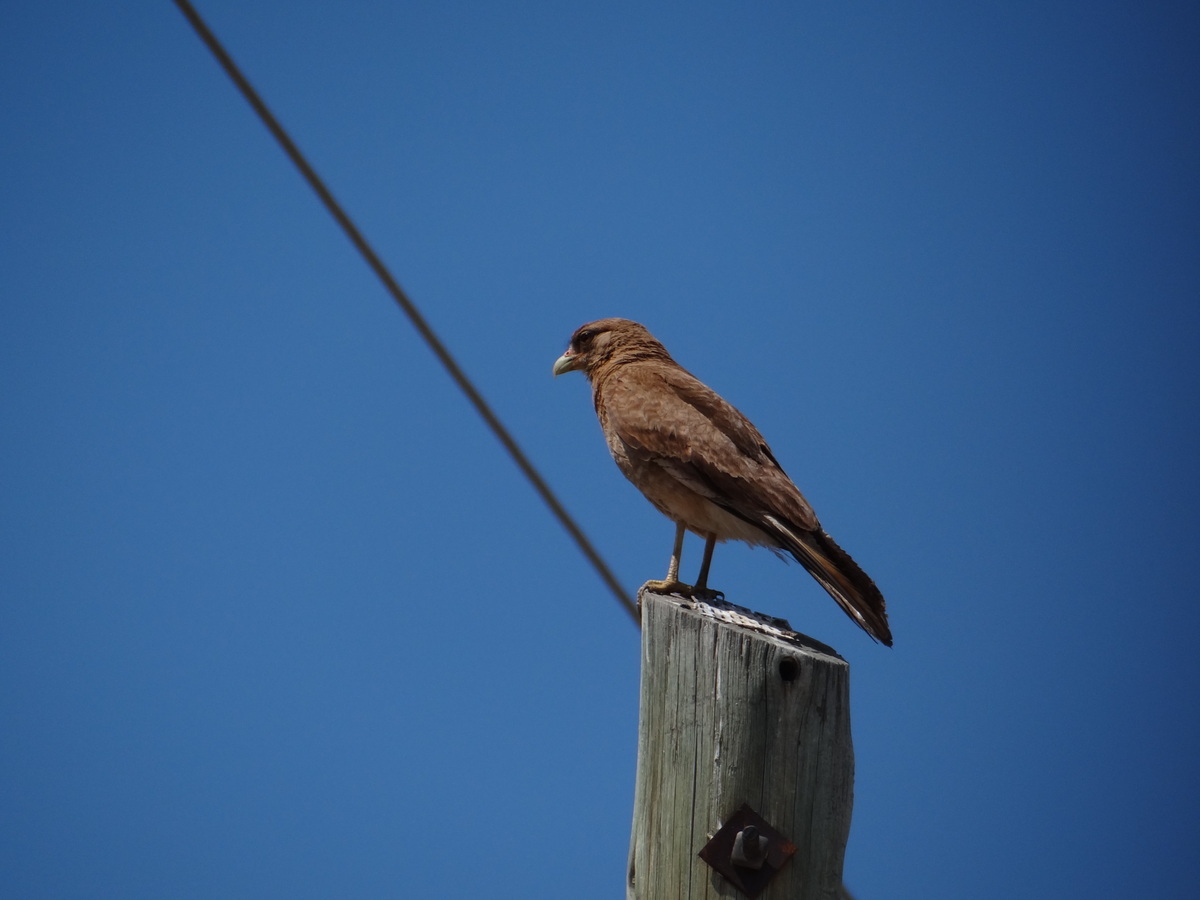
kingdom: Animalia
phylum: Chordata
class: Aves
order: Falconiformes
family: Falconidae
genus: Daptrius
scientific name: Daptrius
